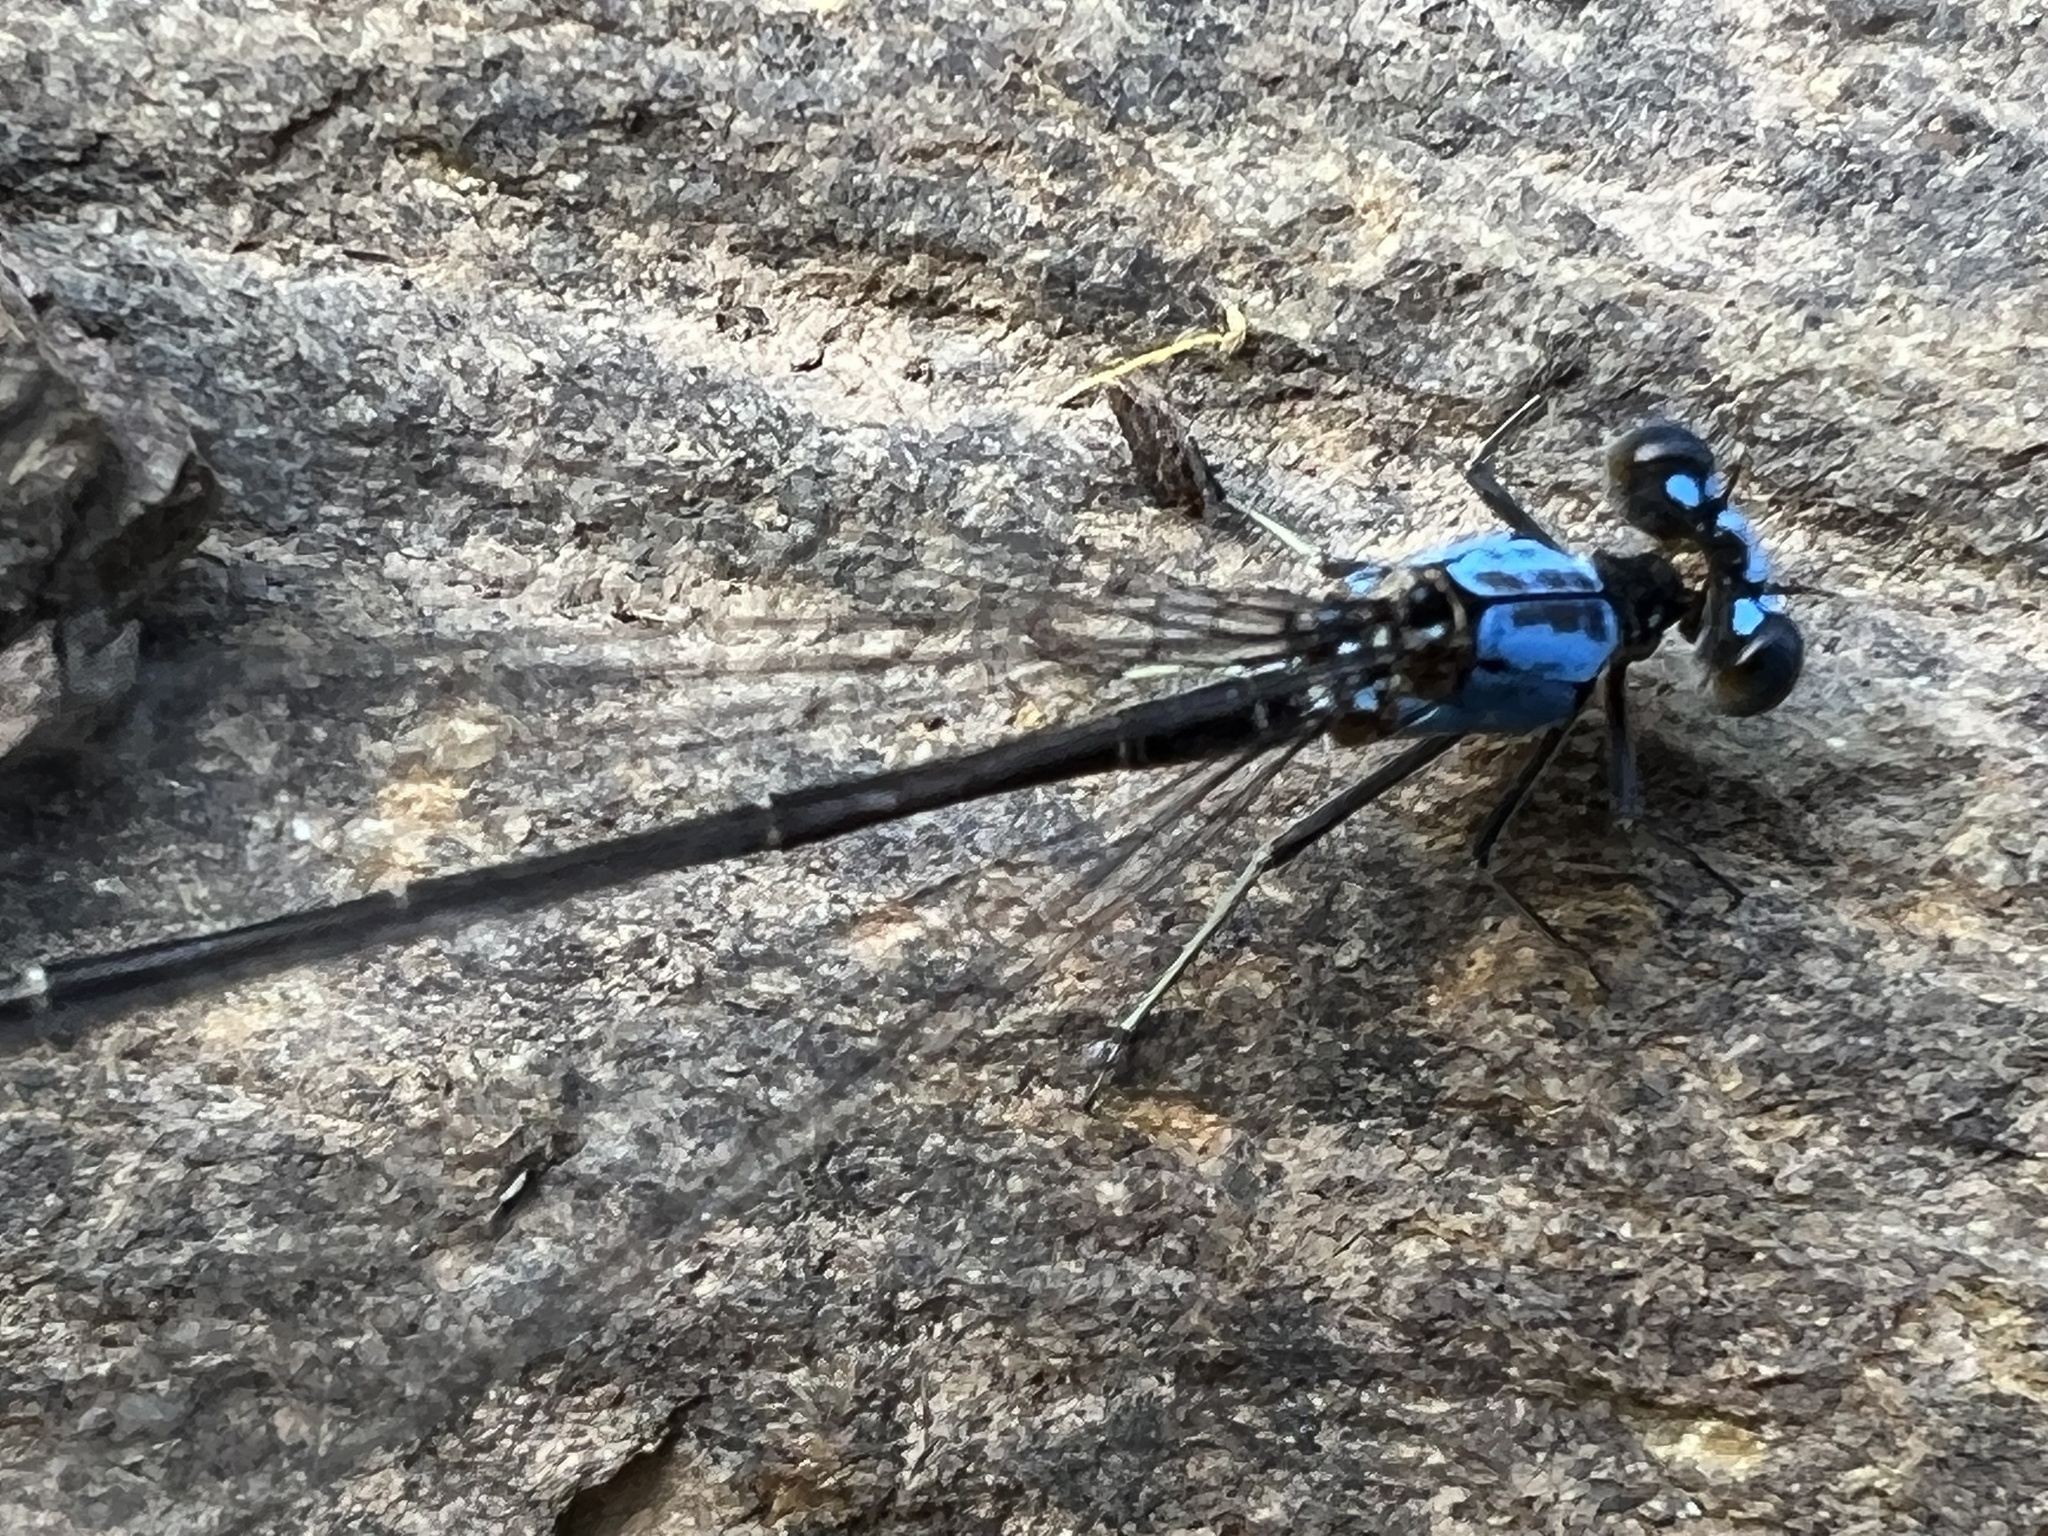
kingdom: Animalia
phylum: Arthropoda
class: Insecta
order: Odonata
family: Coenagrionidae
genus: Argia
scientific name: Argia apicalis
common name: Blue-fronted dancer
